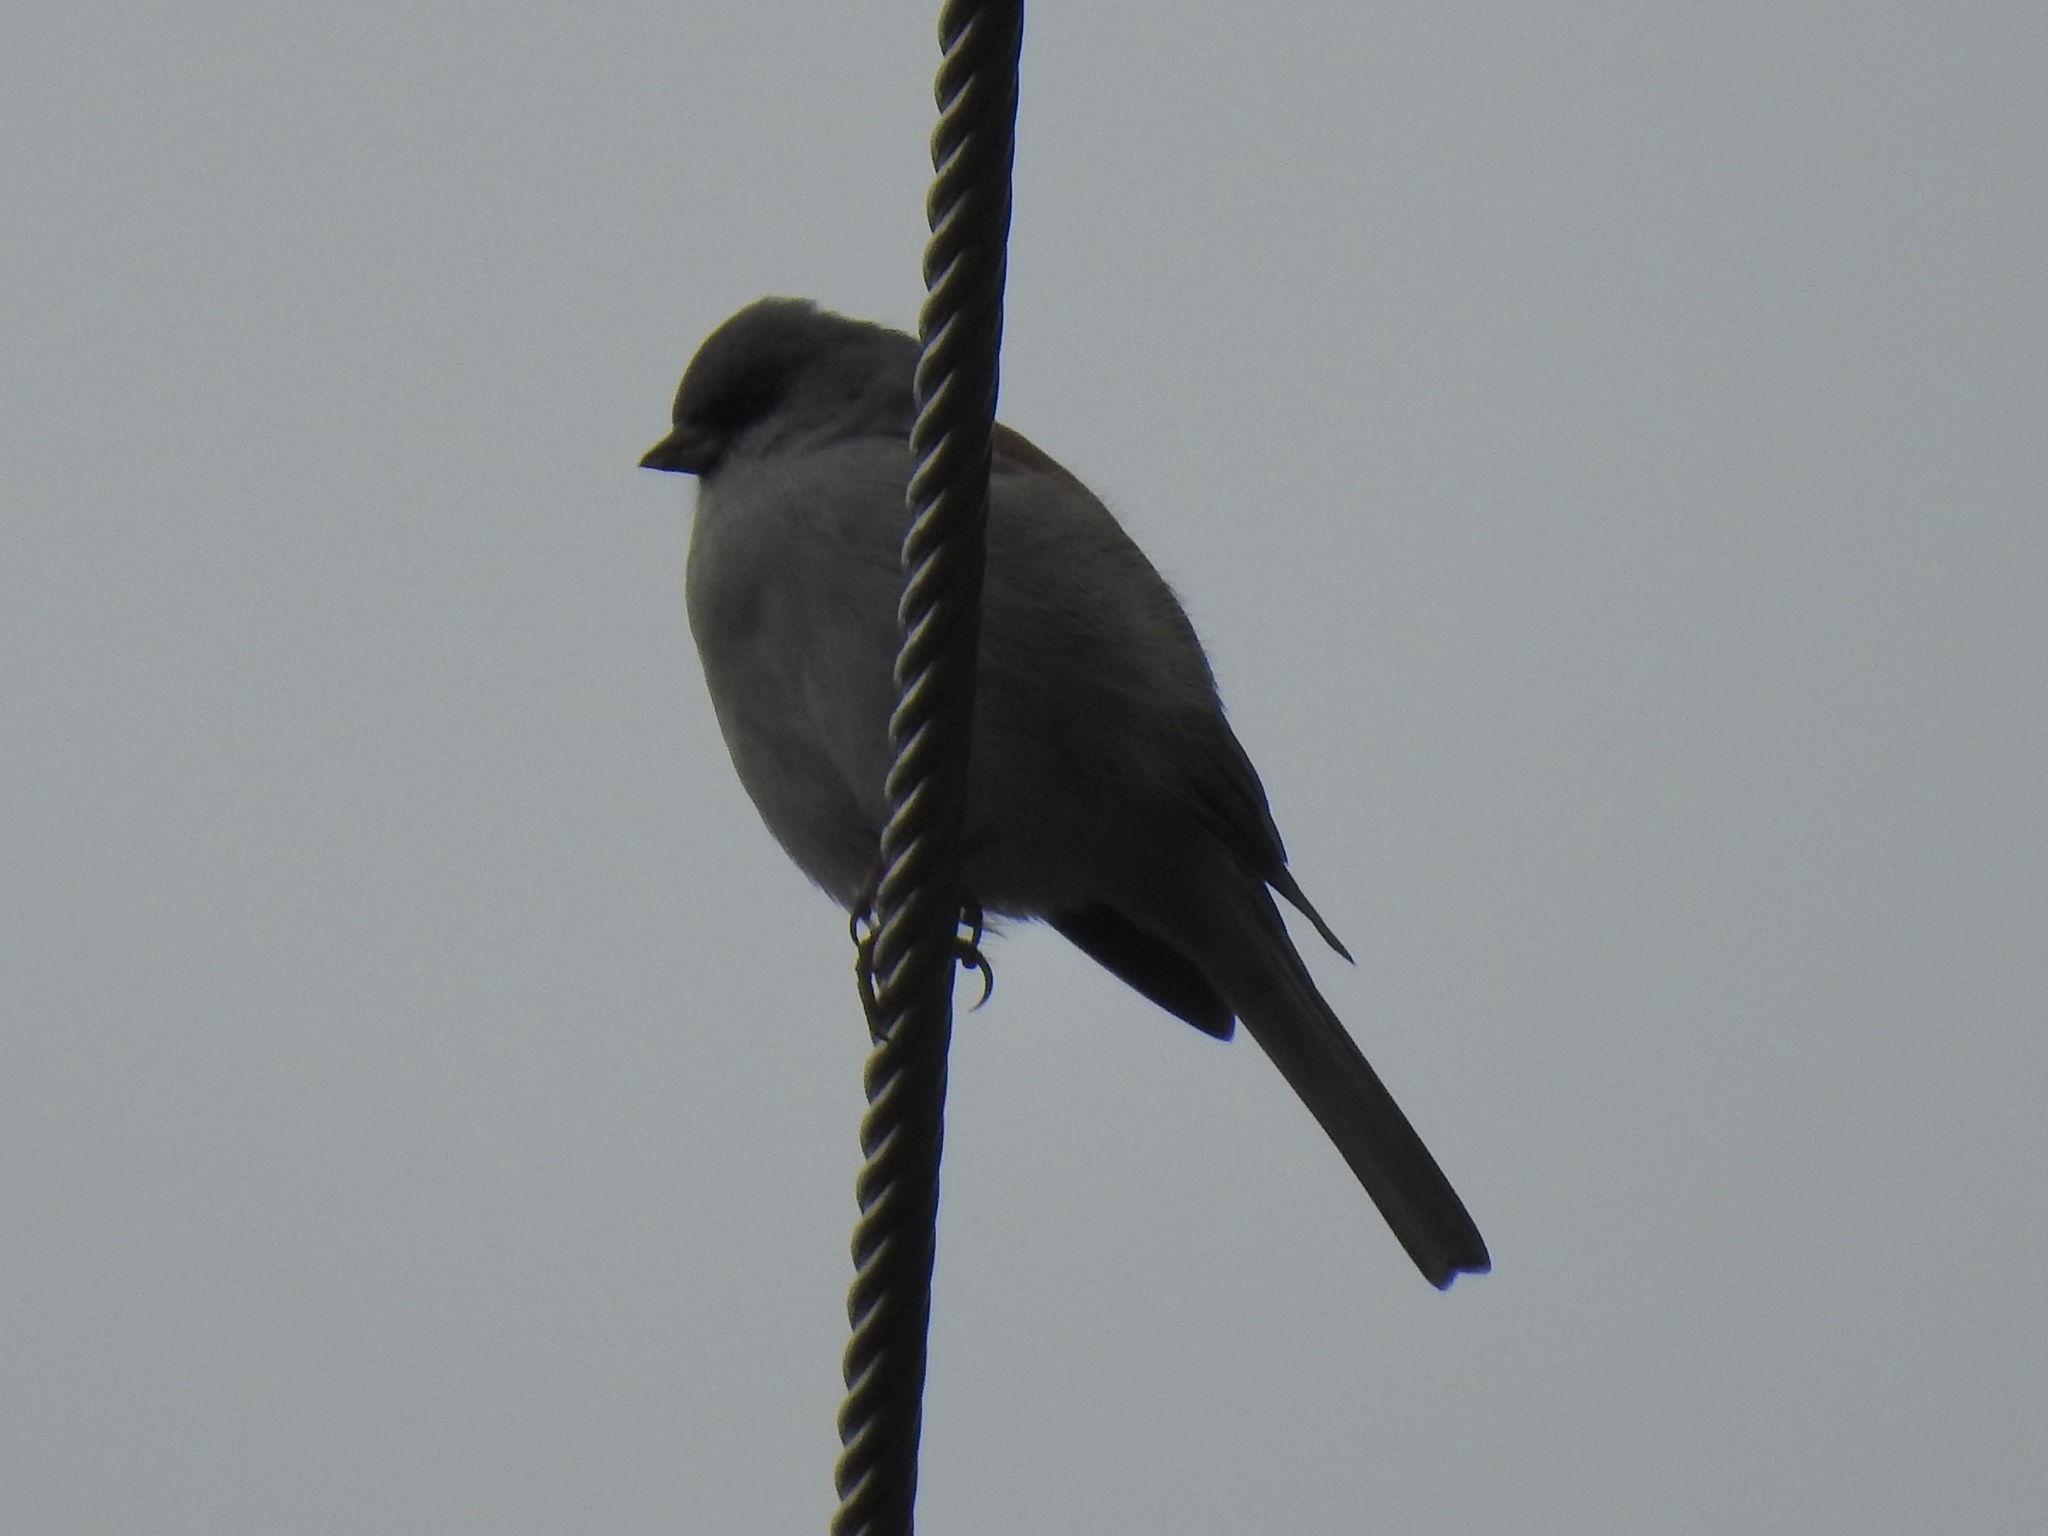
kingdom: Animalia
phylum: Chordata
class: Aves
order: Passeriformes
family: Passerellidae
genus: Junco
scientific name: Junco hyemalis
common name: Dark-eyed junco
